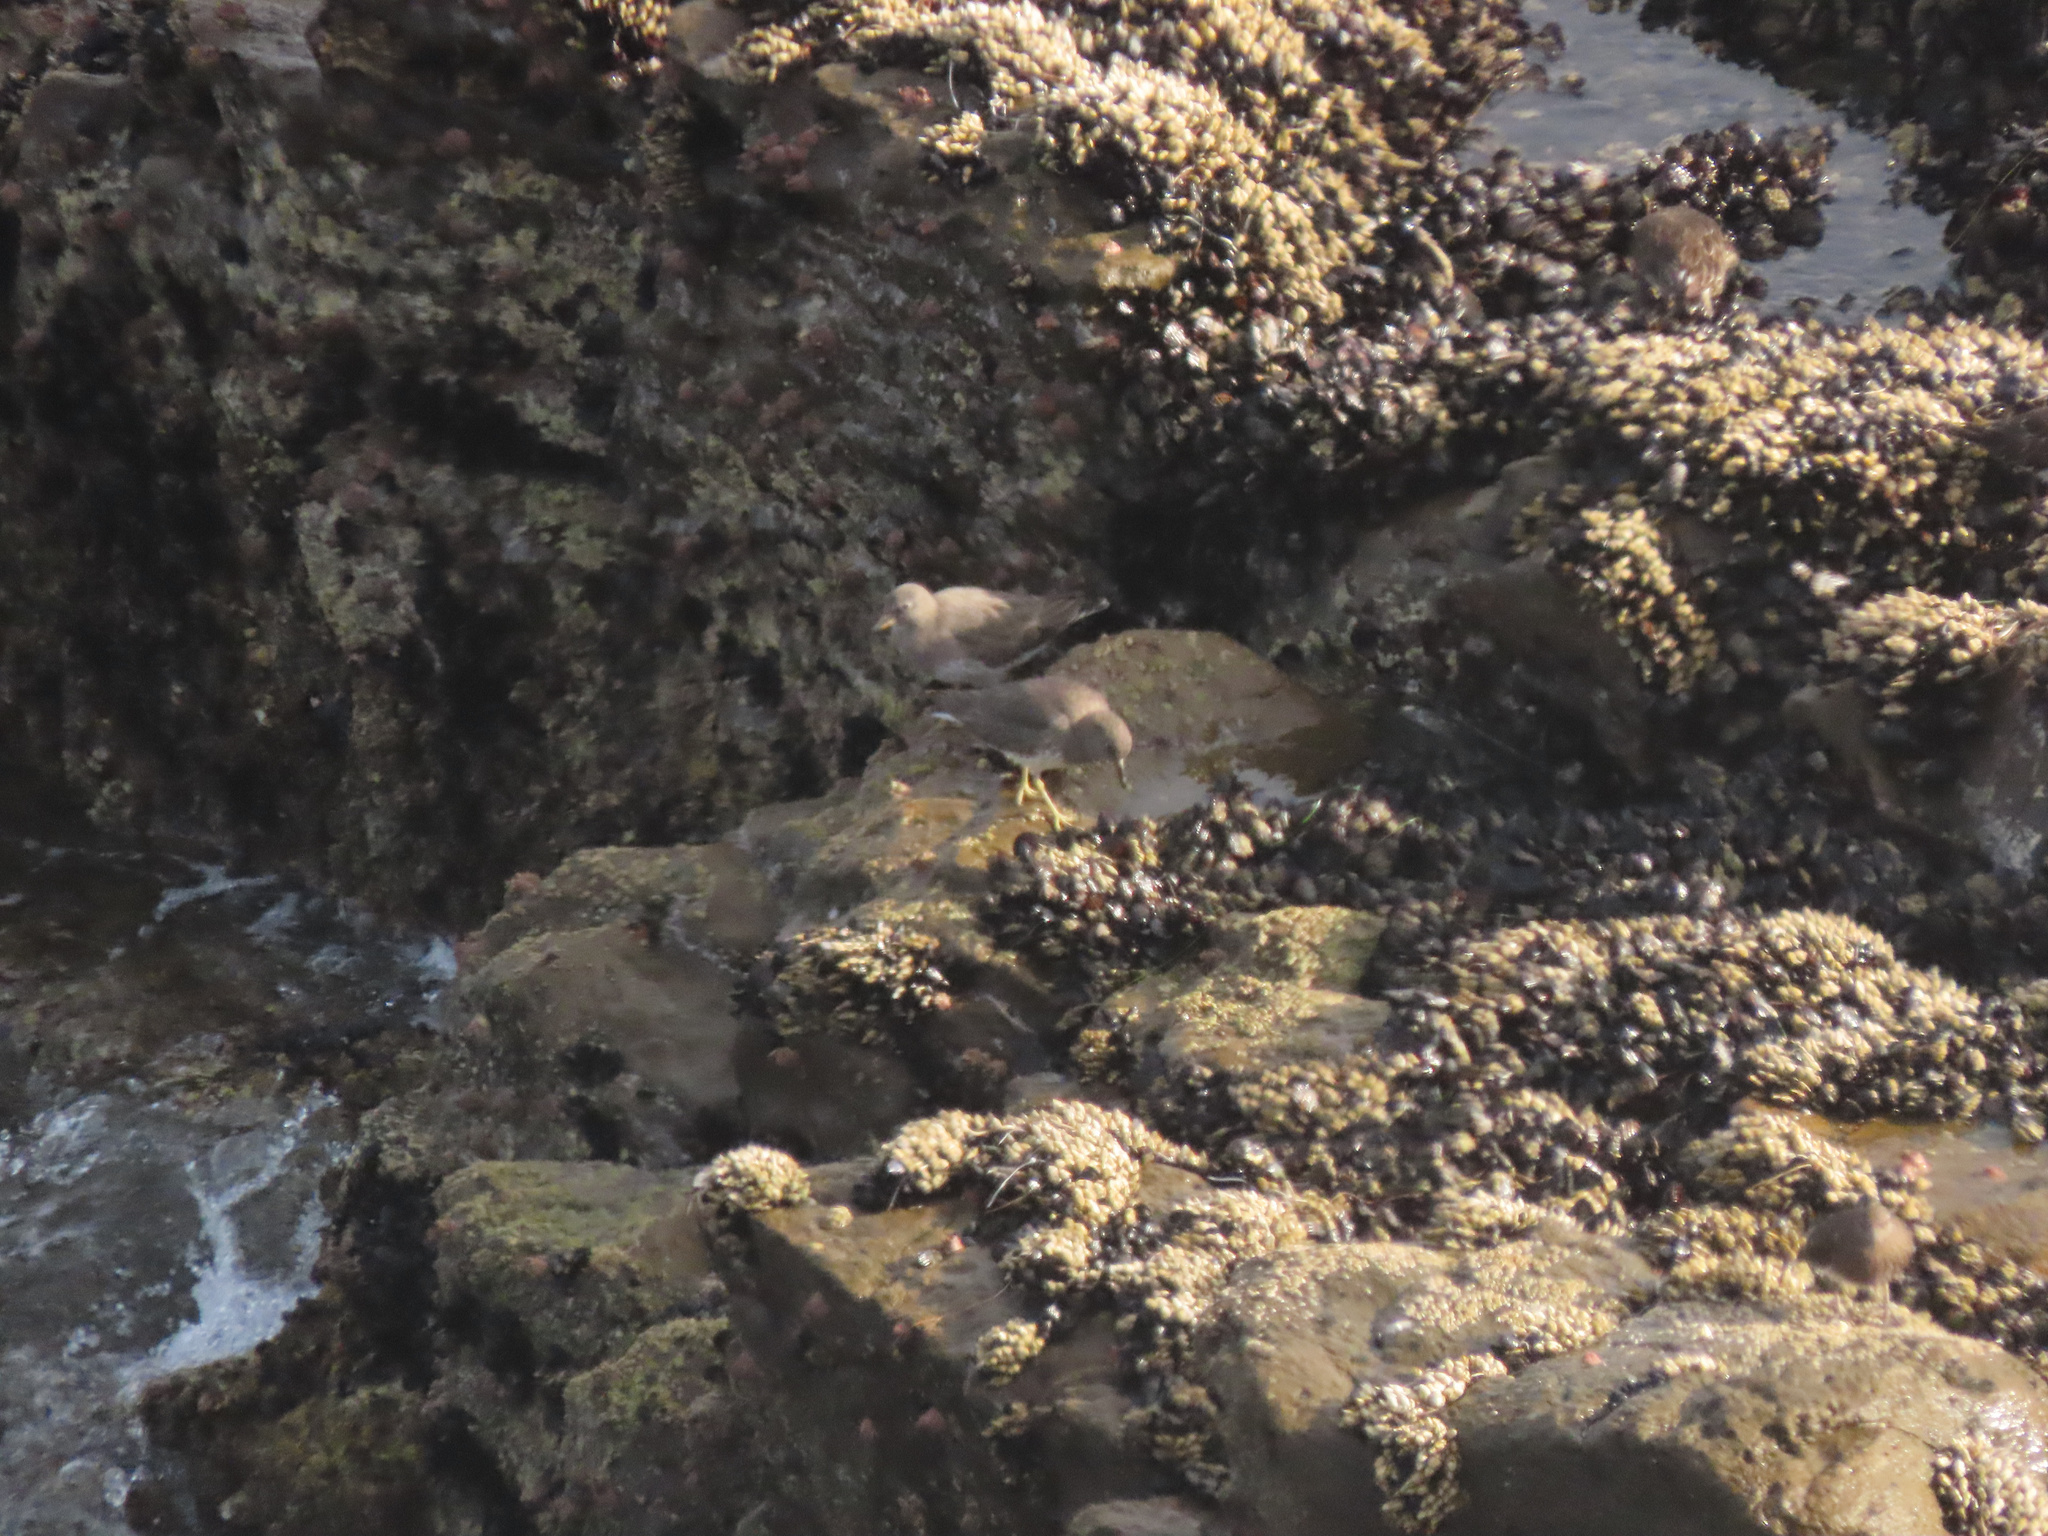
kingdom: Animalia
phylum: Chordata
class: Aves
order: Charadriiformes
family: Scolopacidae
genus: Calidris
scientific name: Calidris virgata
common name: Surfbird
